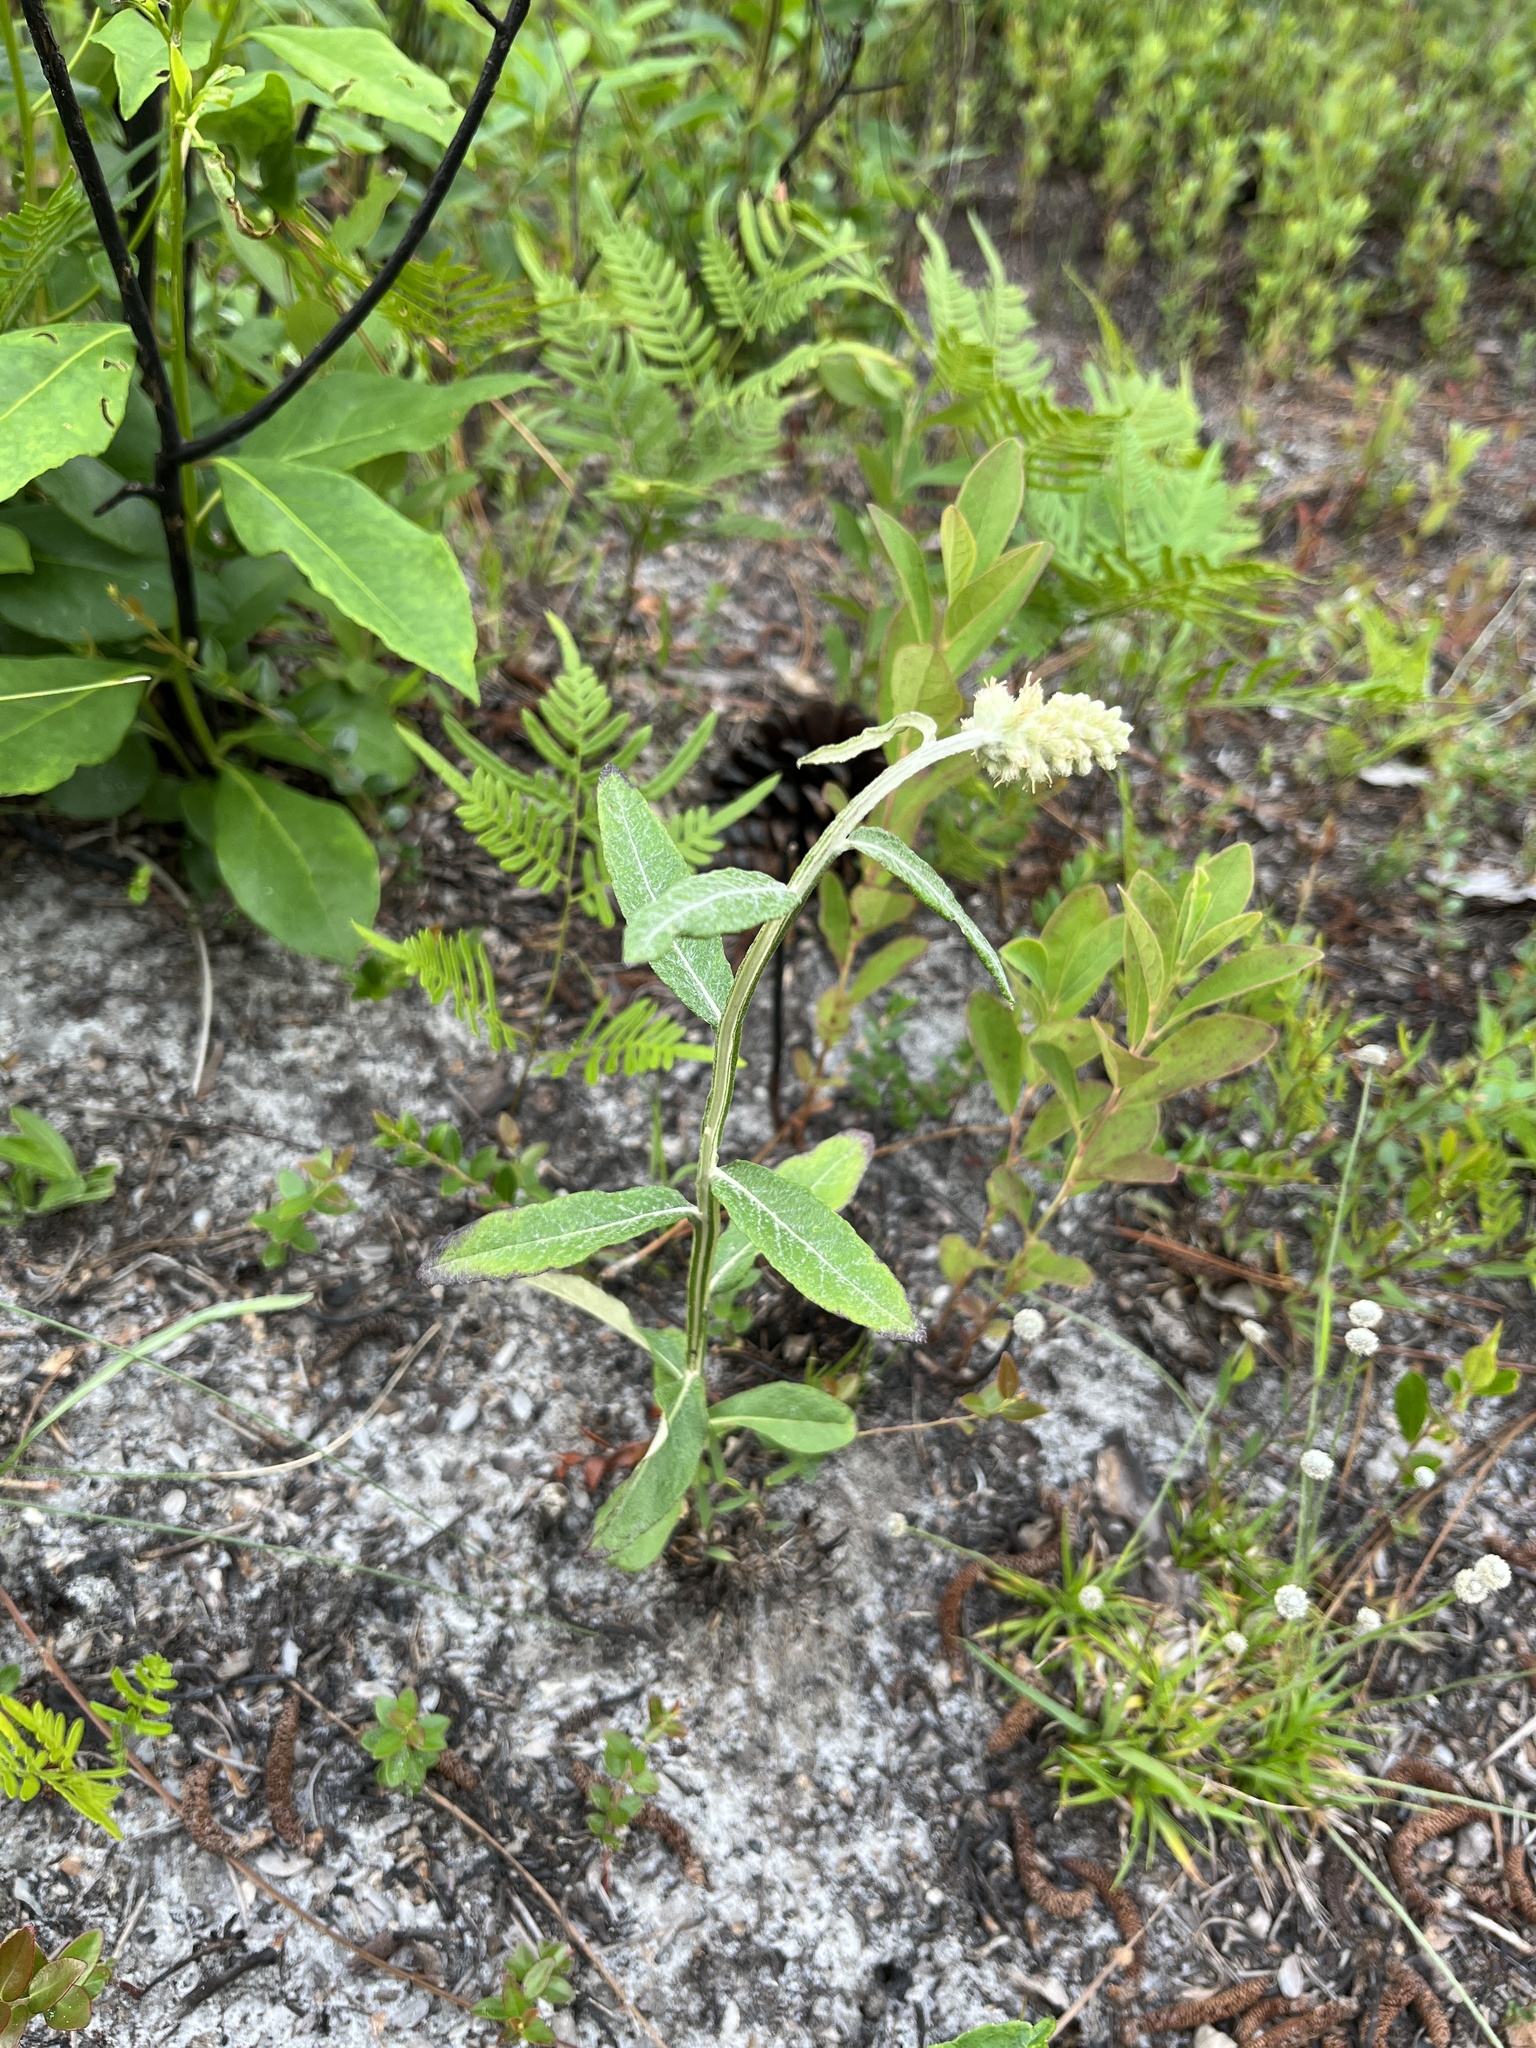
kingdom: Plantae
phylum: Tracheophyta
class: Magnoliopsida
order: Asterales
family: Asteraceae
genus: Pterocaulon
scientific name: Pterocaulon pycnostachyum
